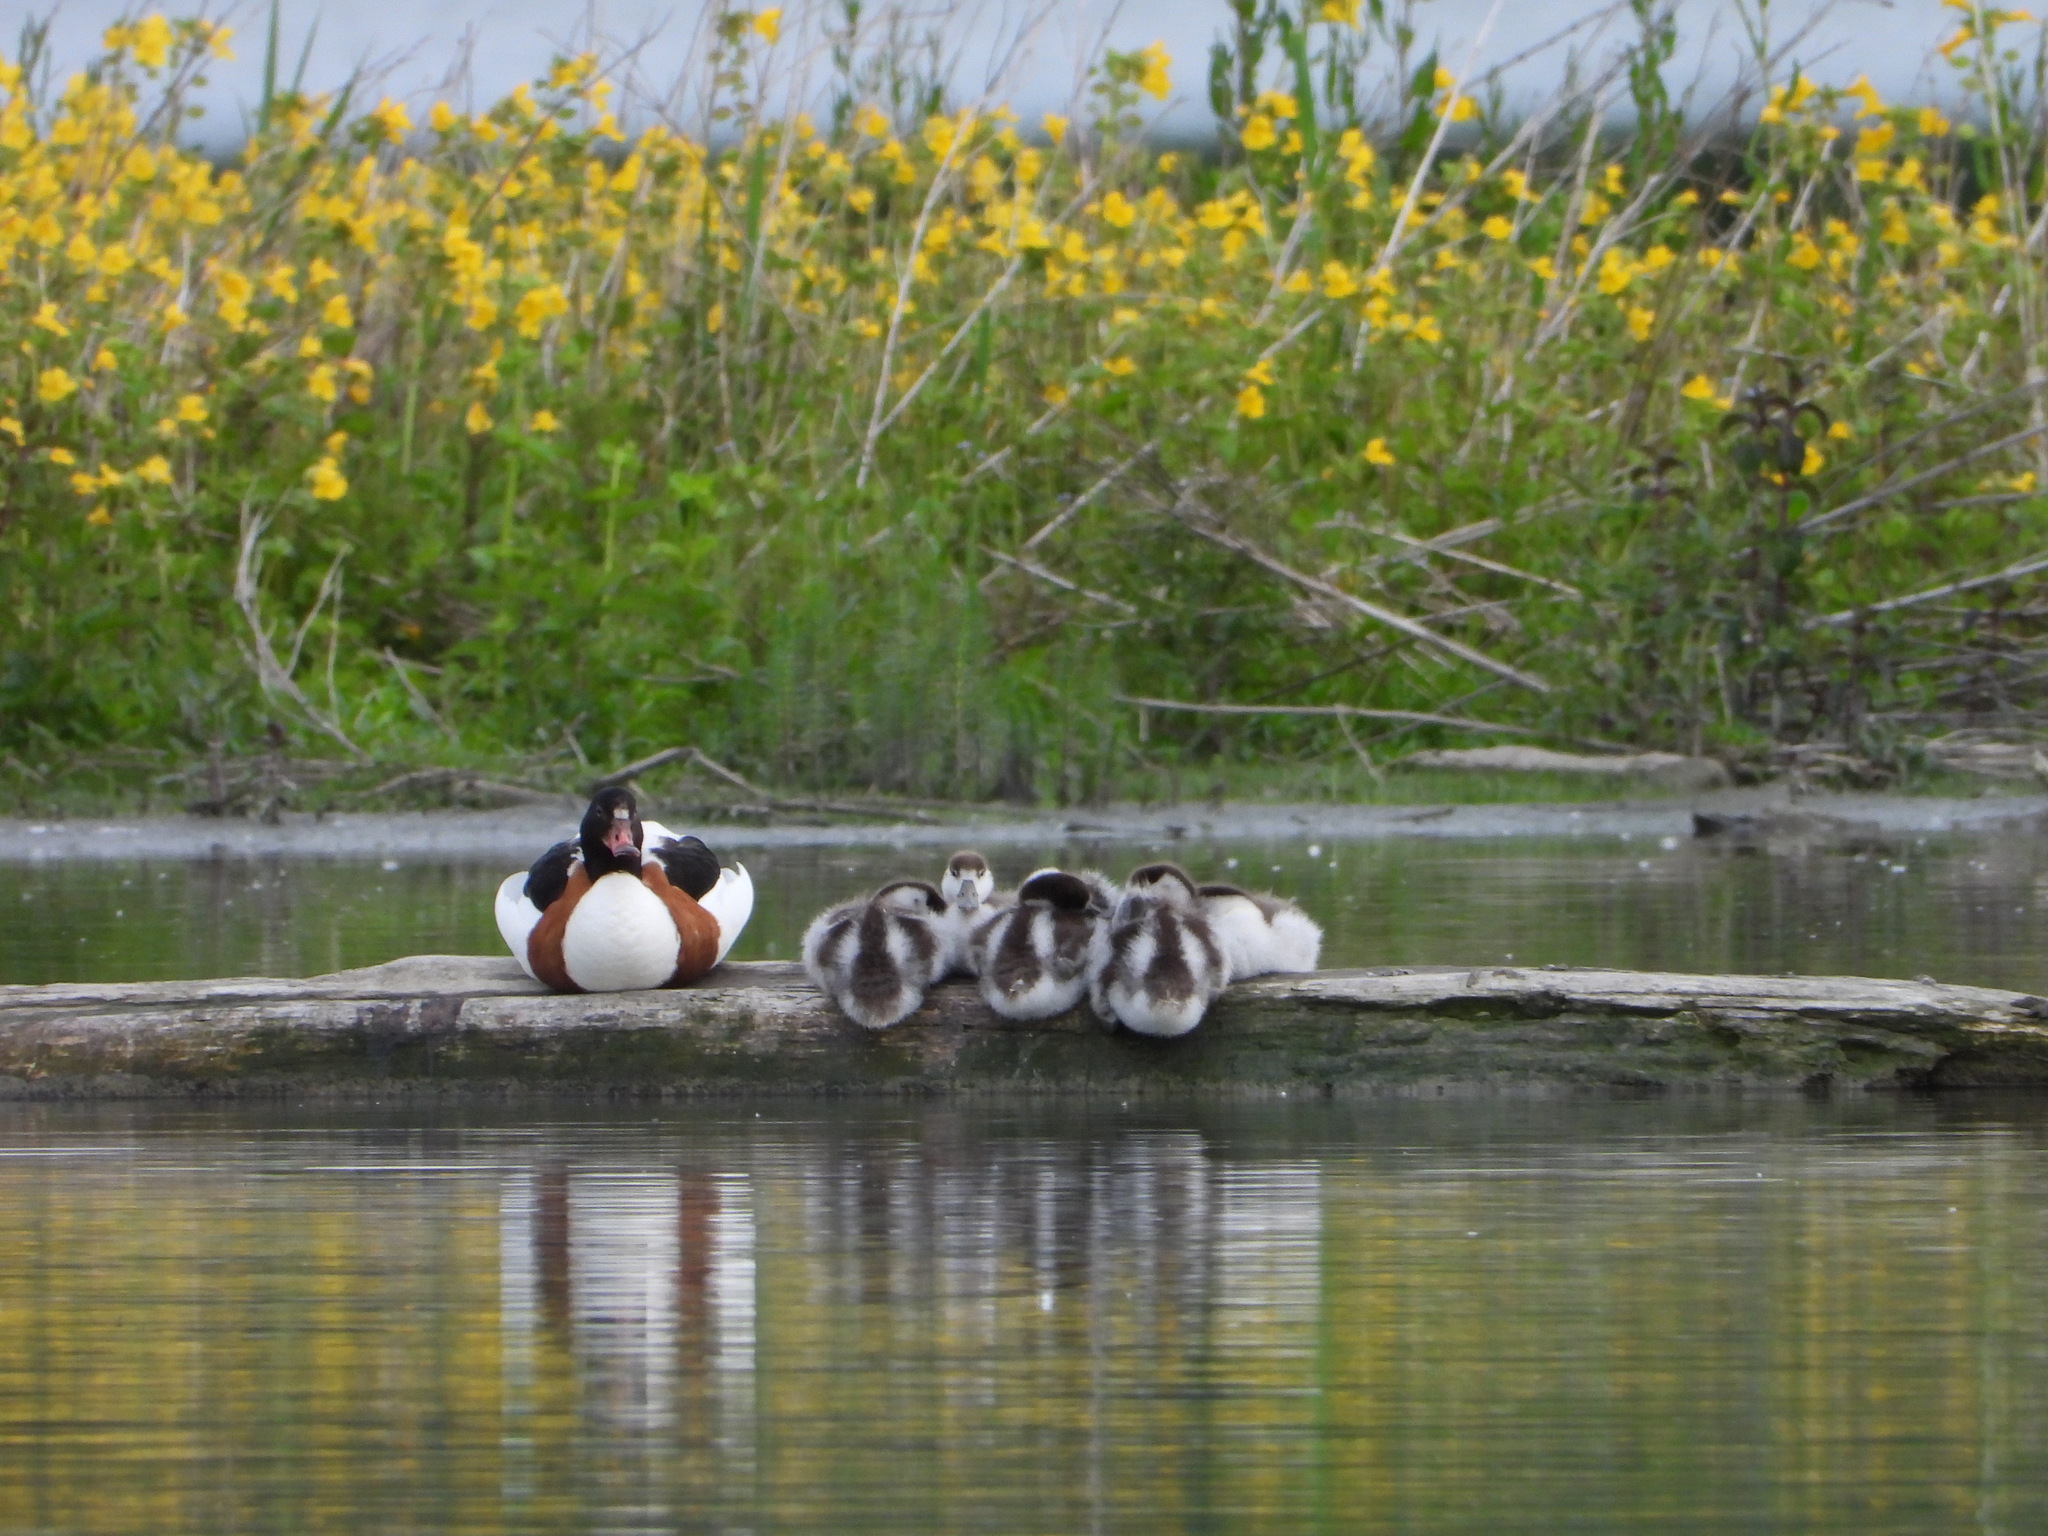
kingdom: Animalia
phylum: Chordata
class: Aves
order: Anseriformes
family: Anatidae
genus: Tadorna
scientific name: Tadorna tadorna
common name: Common shelduck
